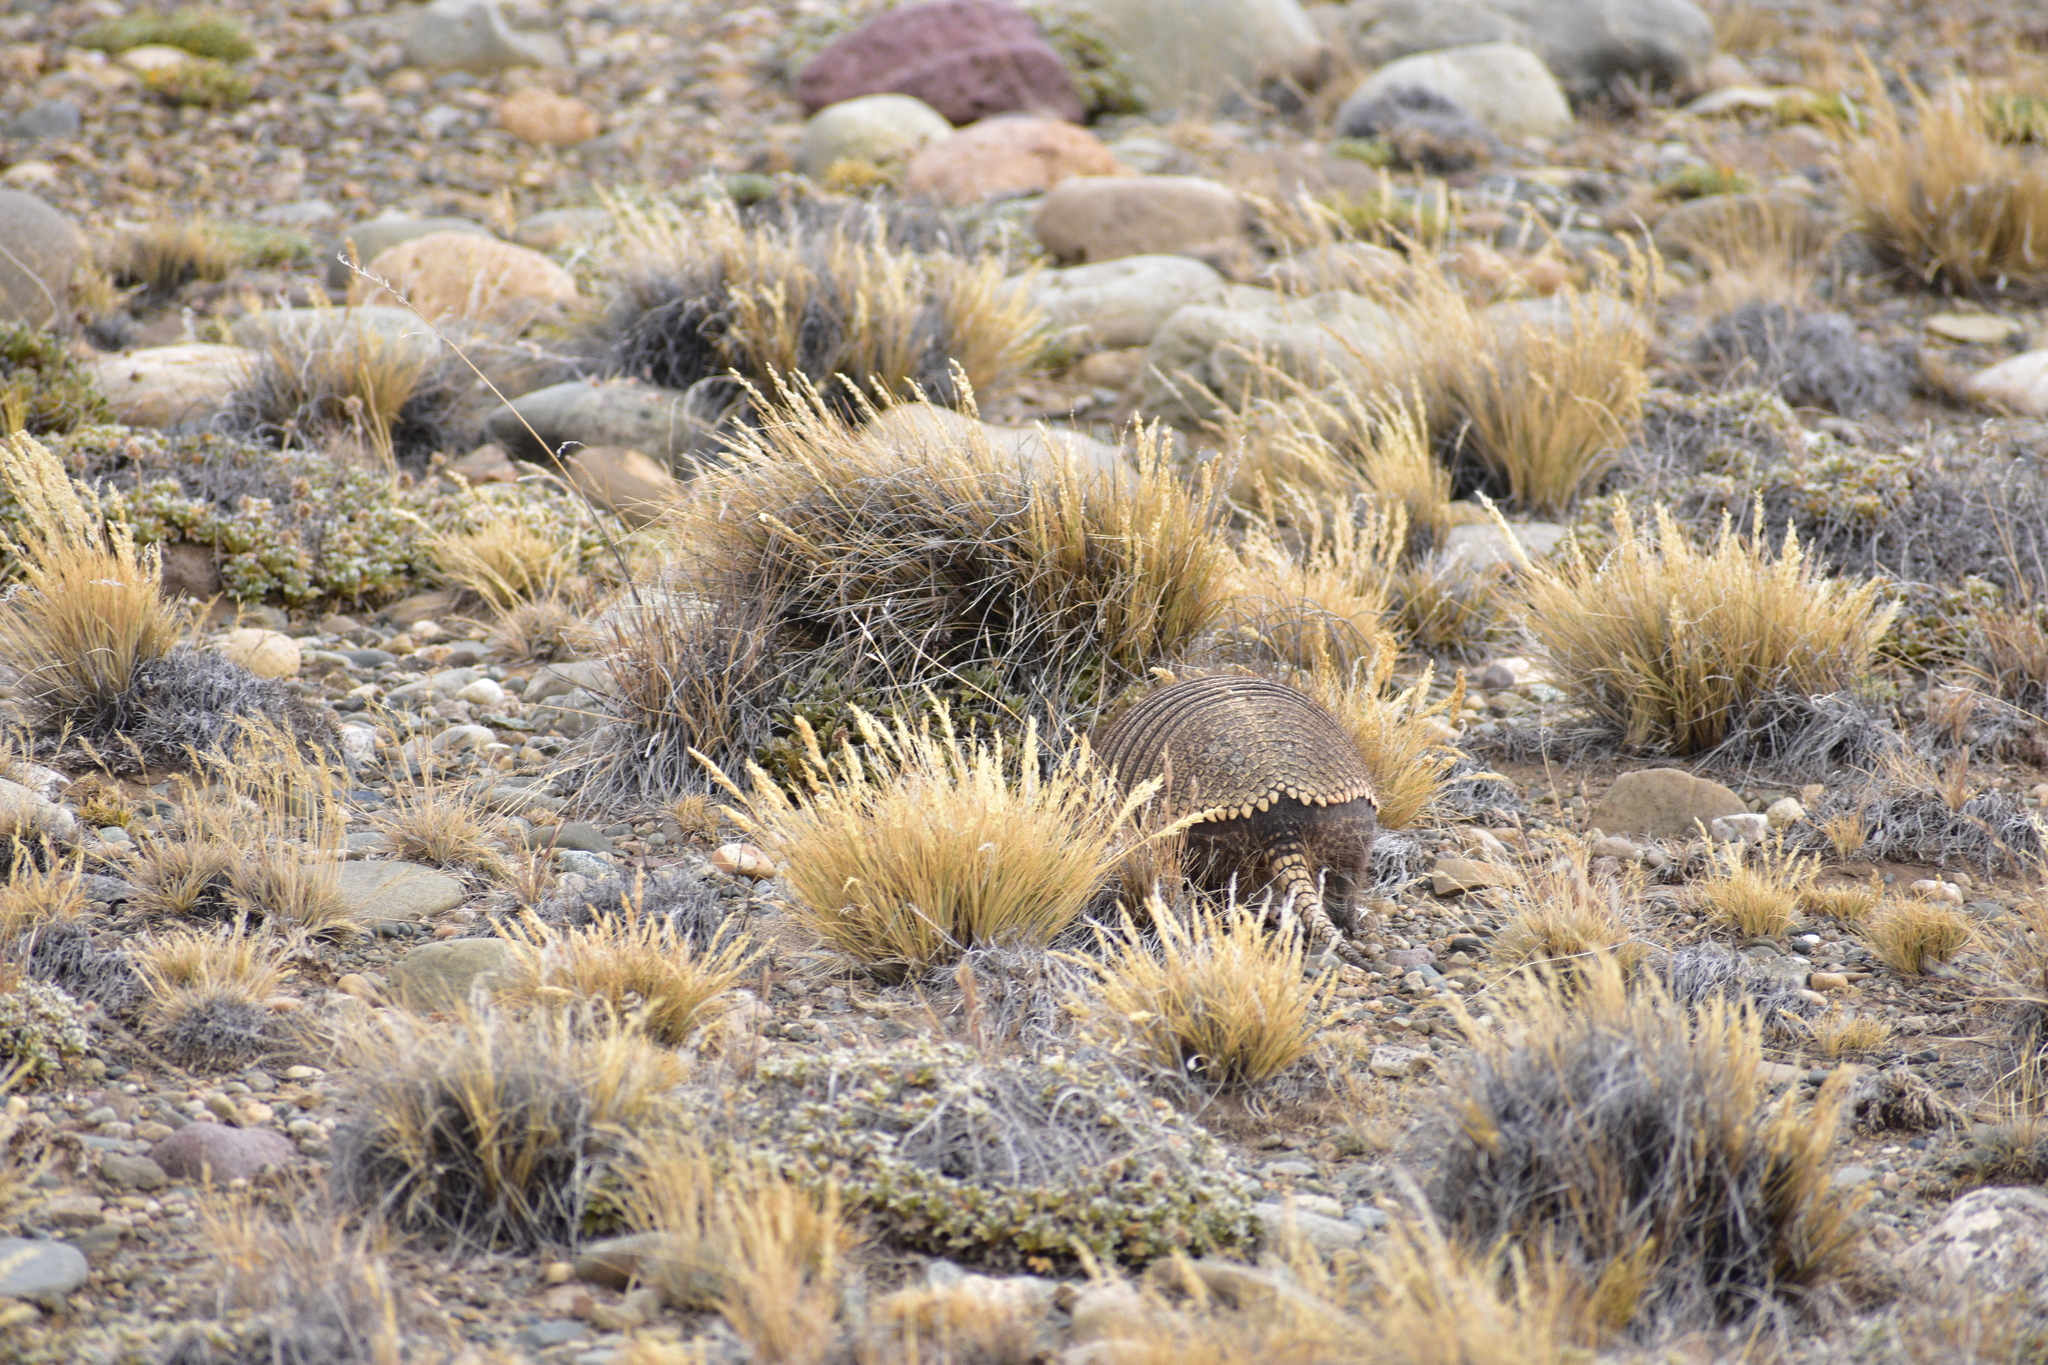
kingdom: Animalia
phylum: Chordata
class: Mammalia
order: Cingulata
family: Dasypodidae
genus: Zaedyus
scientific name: Zaedyus pichiy
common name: Pichi
